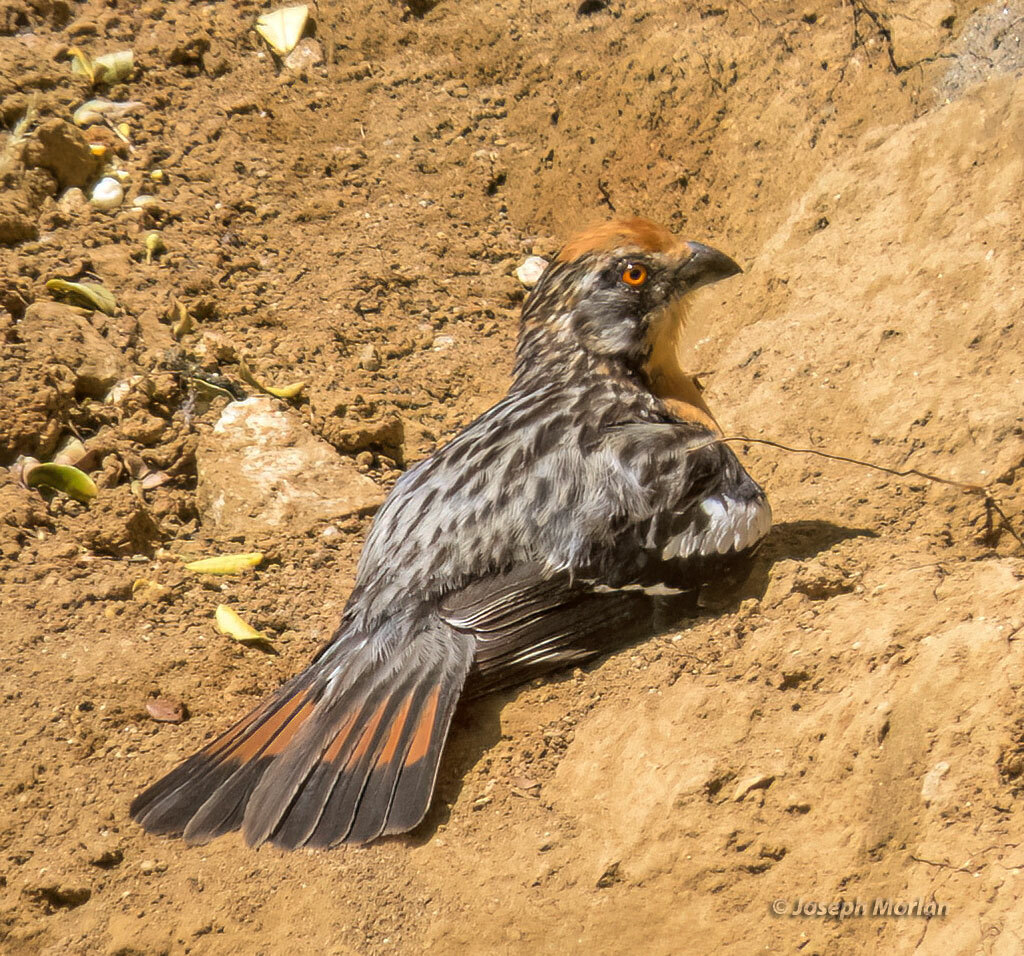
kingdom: Animalia
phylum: Chordata
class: Aves
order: Passeriformes
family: Cotingidae
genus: Phytotoma
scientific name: Phytotoma rara
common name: Rufous-tailed plantcutter
